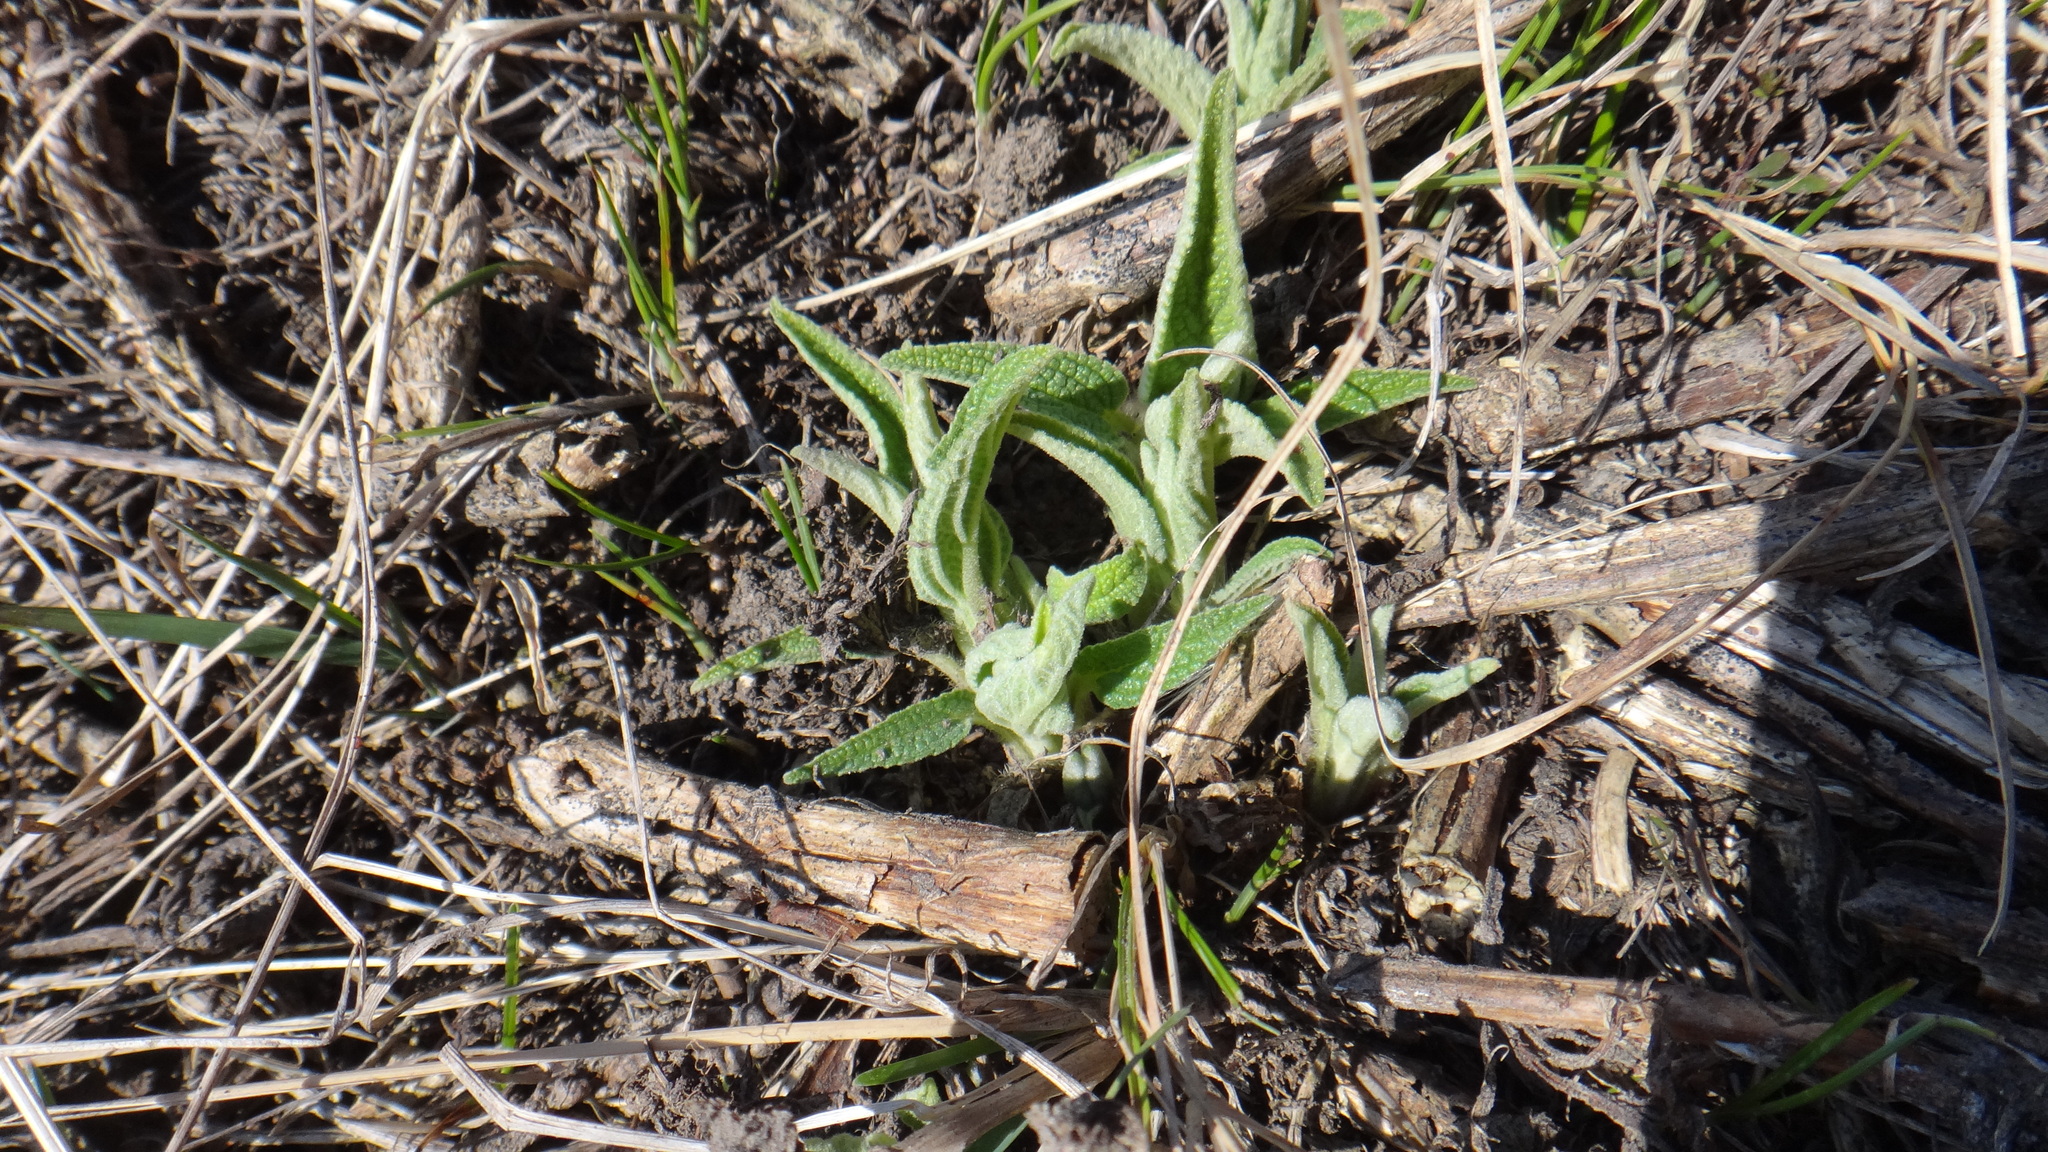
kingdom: Plantae
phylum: Tracheophyta
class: Magnoliopsida
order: Lamiales
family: Lamiaceae
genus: Phlomis
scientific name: Phlomis herba-venti
